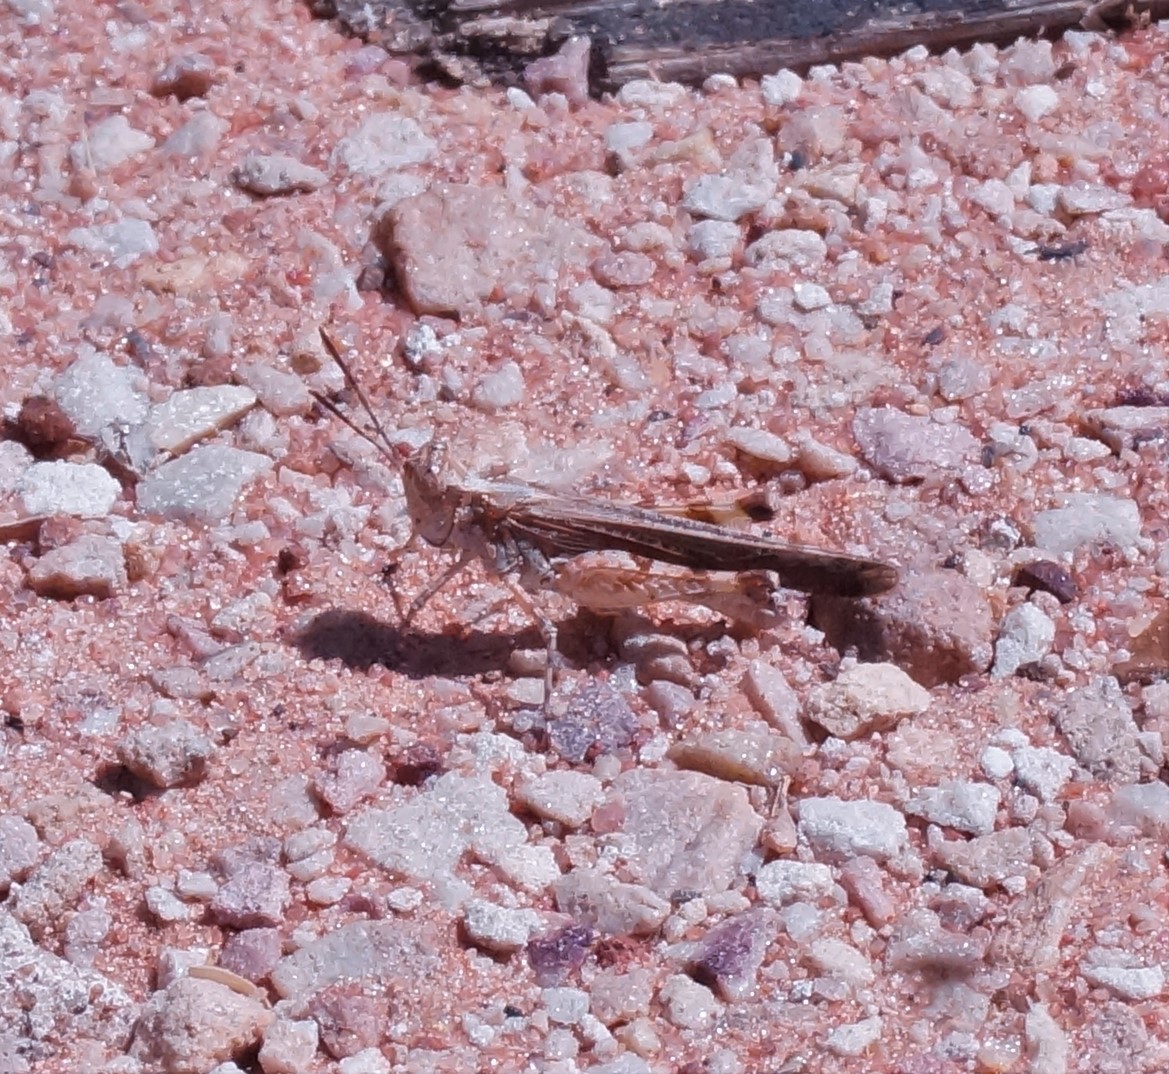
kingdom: Animalia
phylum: Arthropoda
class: Insecta
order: Orthoptera
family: Acrididae
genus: Pycnostictus
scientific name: Pycnostictus seriatus
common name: Common bandwing
